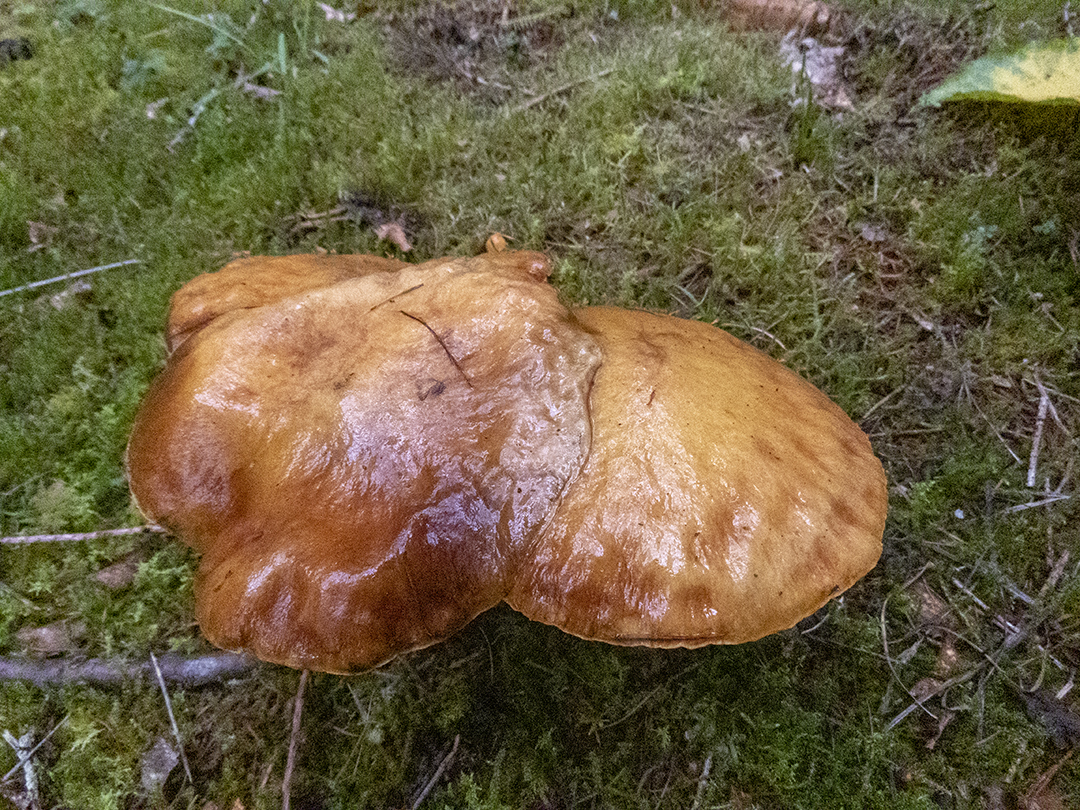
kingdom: Fungi
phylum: Basidiomycota
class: Agaricomycetes
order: Boletales
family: Suillaceae
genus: Suillus
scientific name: Suillus grevillei
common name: Larch bolete
